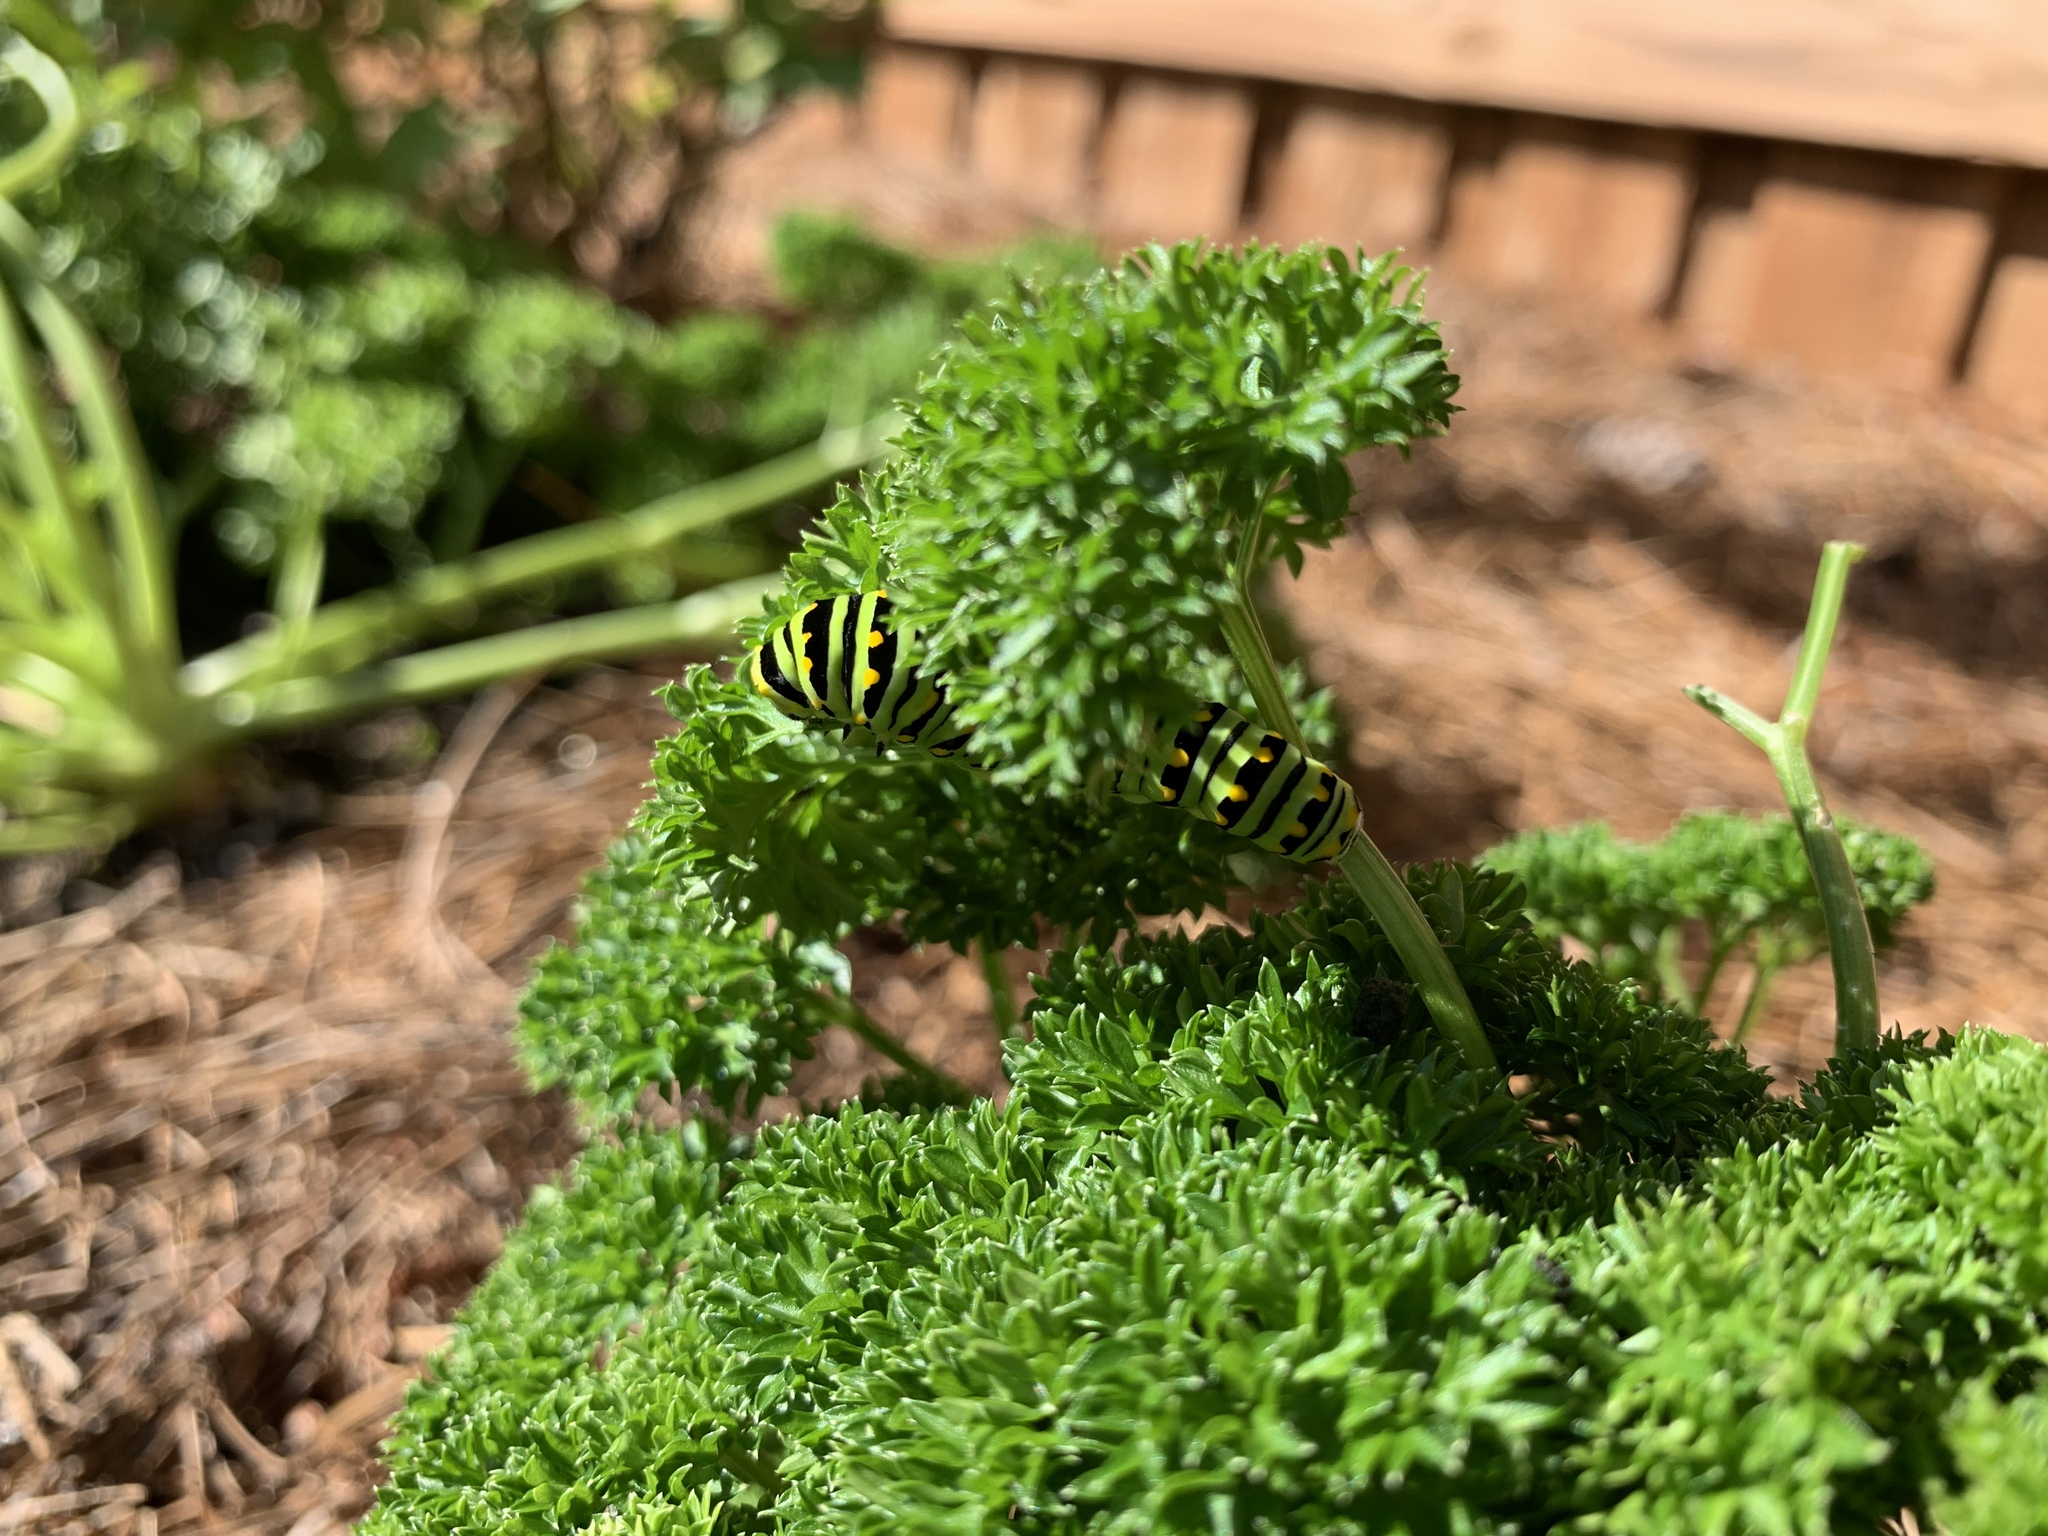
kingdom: Animalia
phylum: Arthropoda
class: Insecta
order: Lepidoptera
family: Papilionidae
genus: Papilio
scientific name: Papilio polyxenes
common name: Black swallowtail
